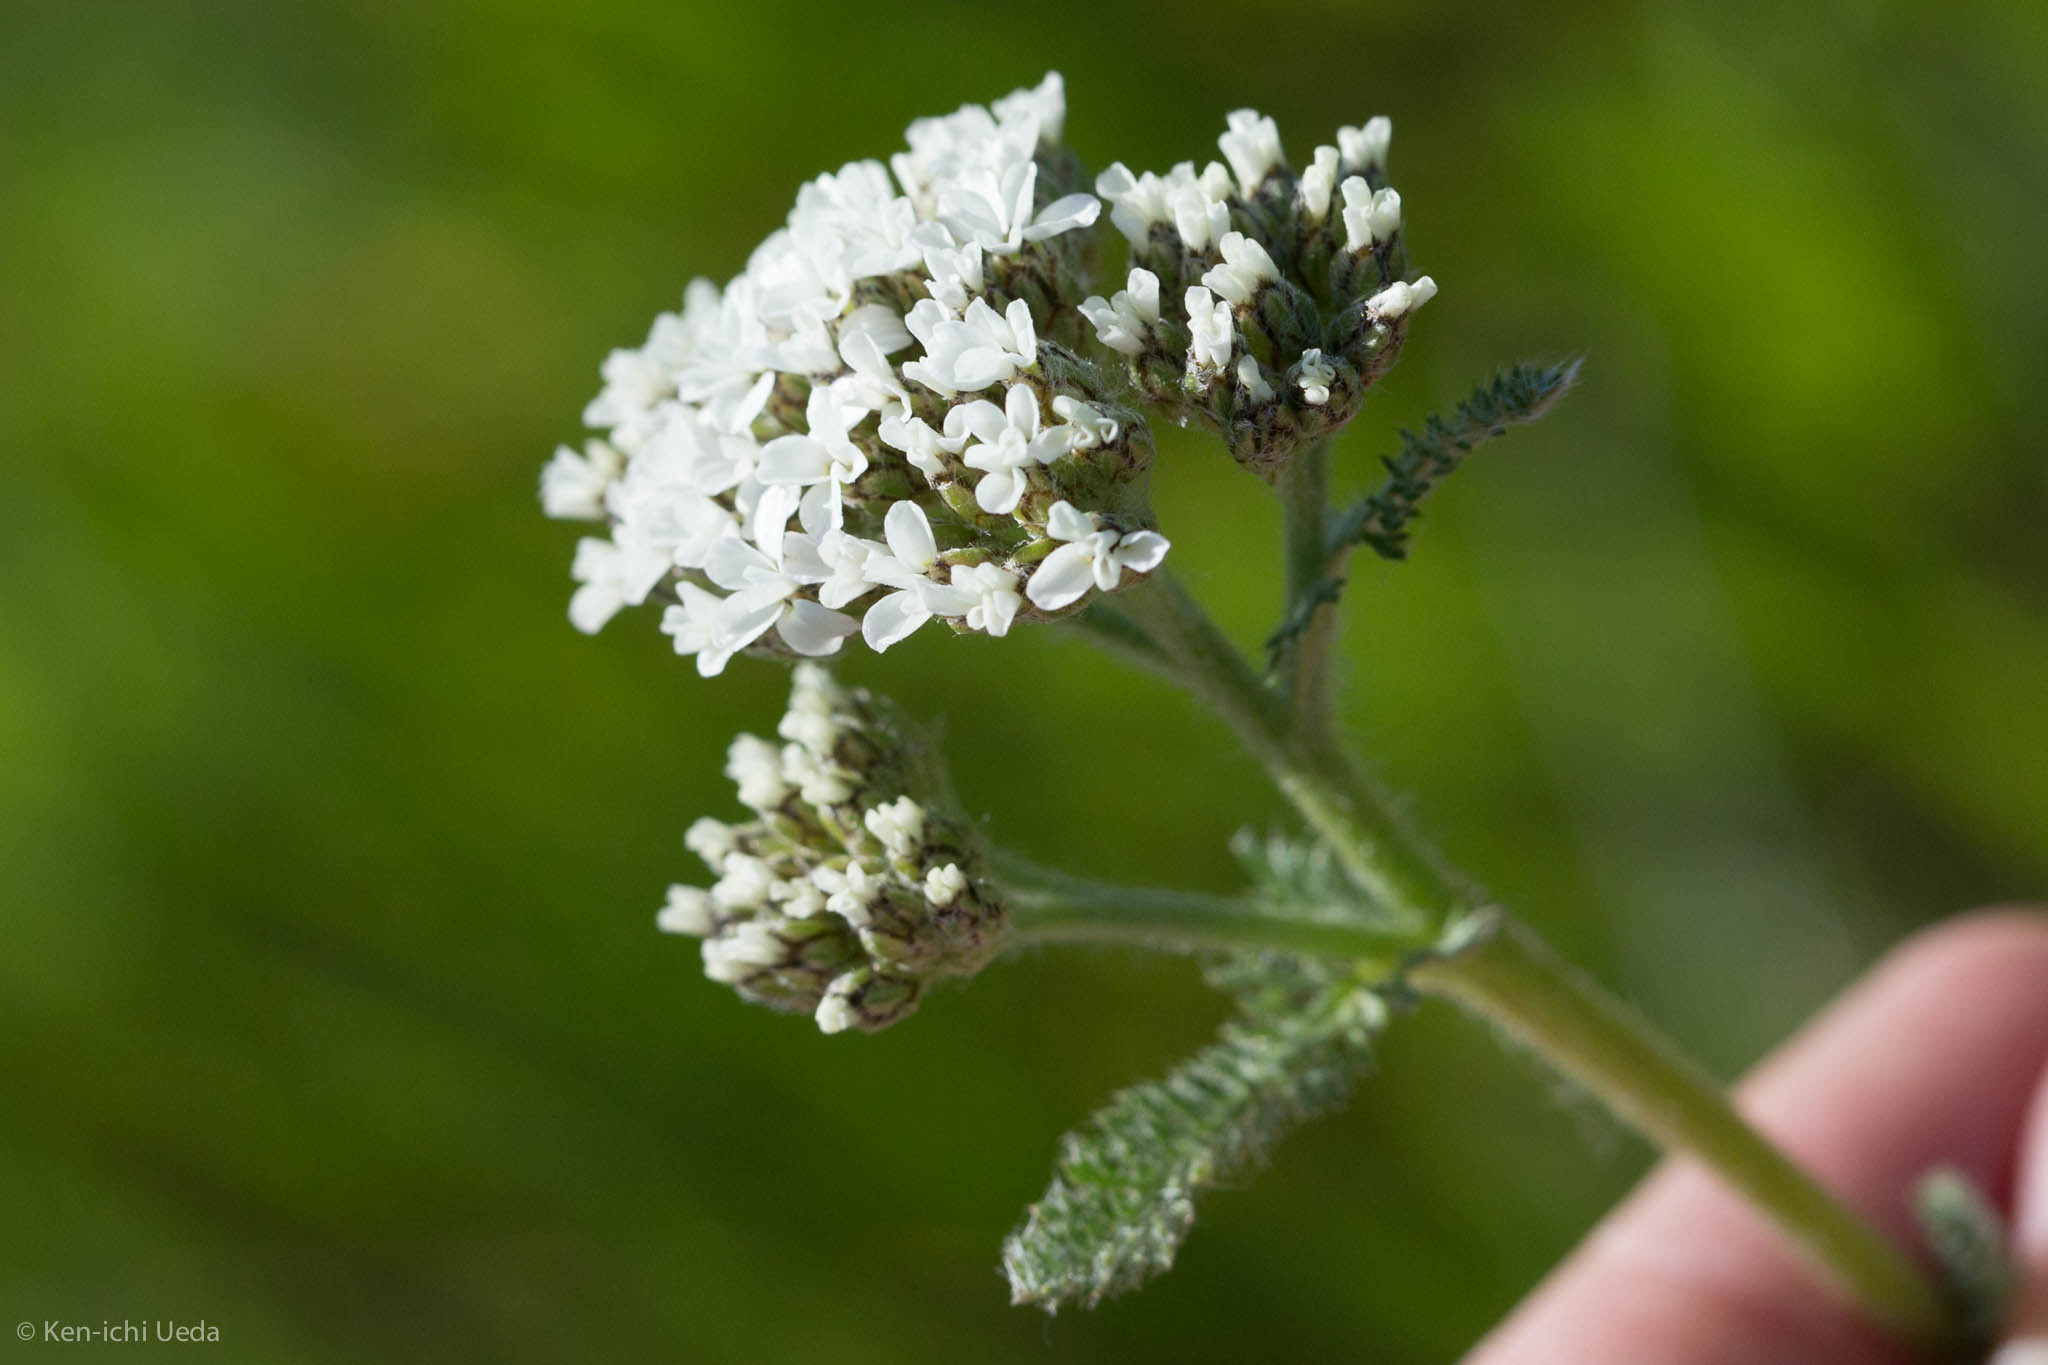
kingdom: Plantae
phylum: Tracheophyta
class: Magnoliopsida
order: Asterales
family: Asteraceae
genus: Achillea
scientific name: Achillea millefolium
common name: Yarrow
